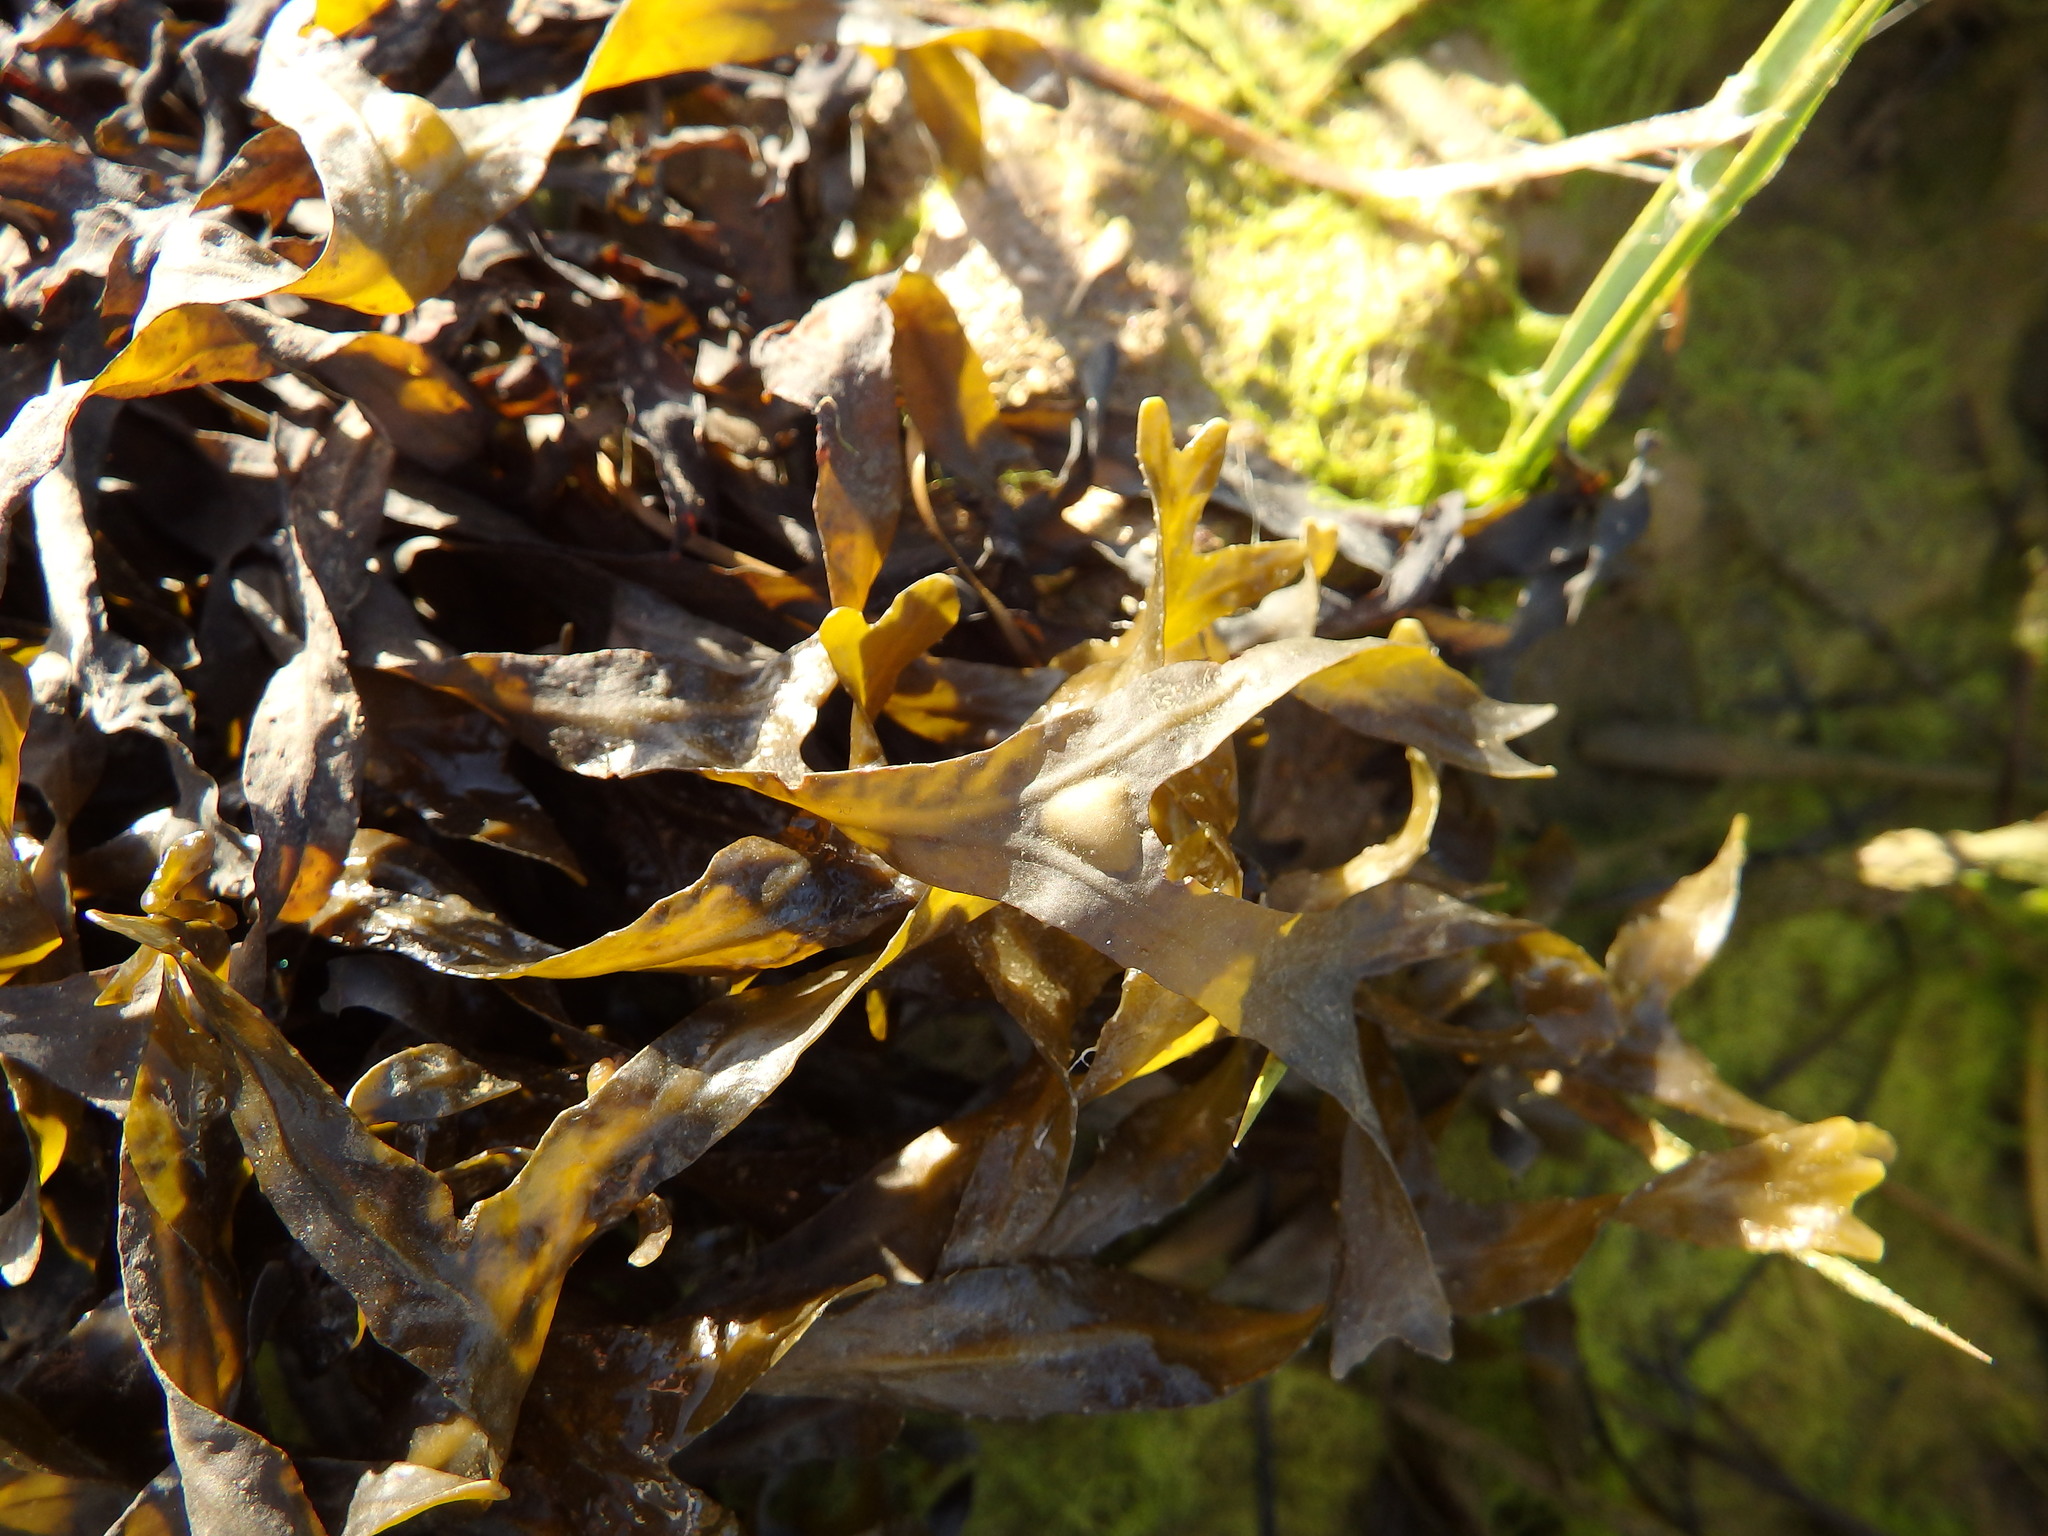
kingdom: Chromista
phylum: Ochrophyta
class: Phaeophyceae
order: Fucales
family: Fucaceae
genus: Fucus
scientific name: Fucus vesiculosus
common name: Bladder wrack
